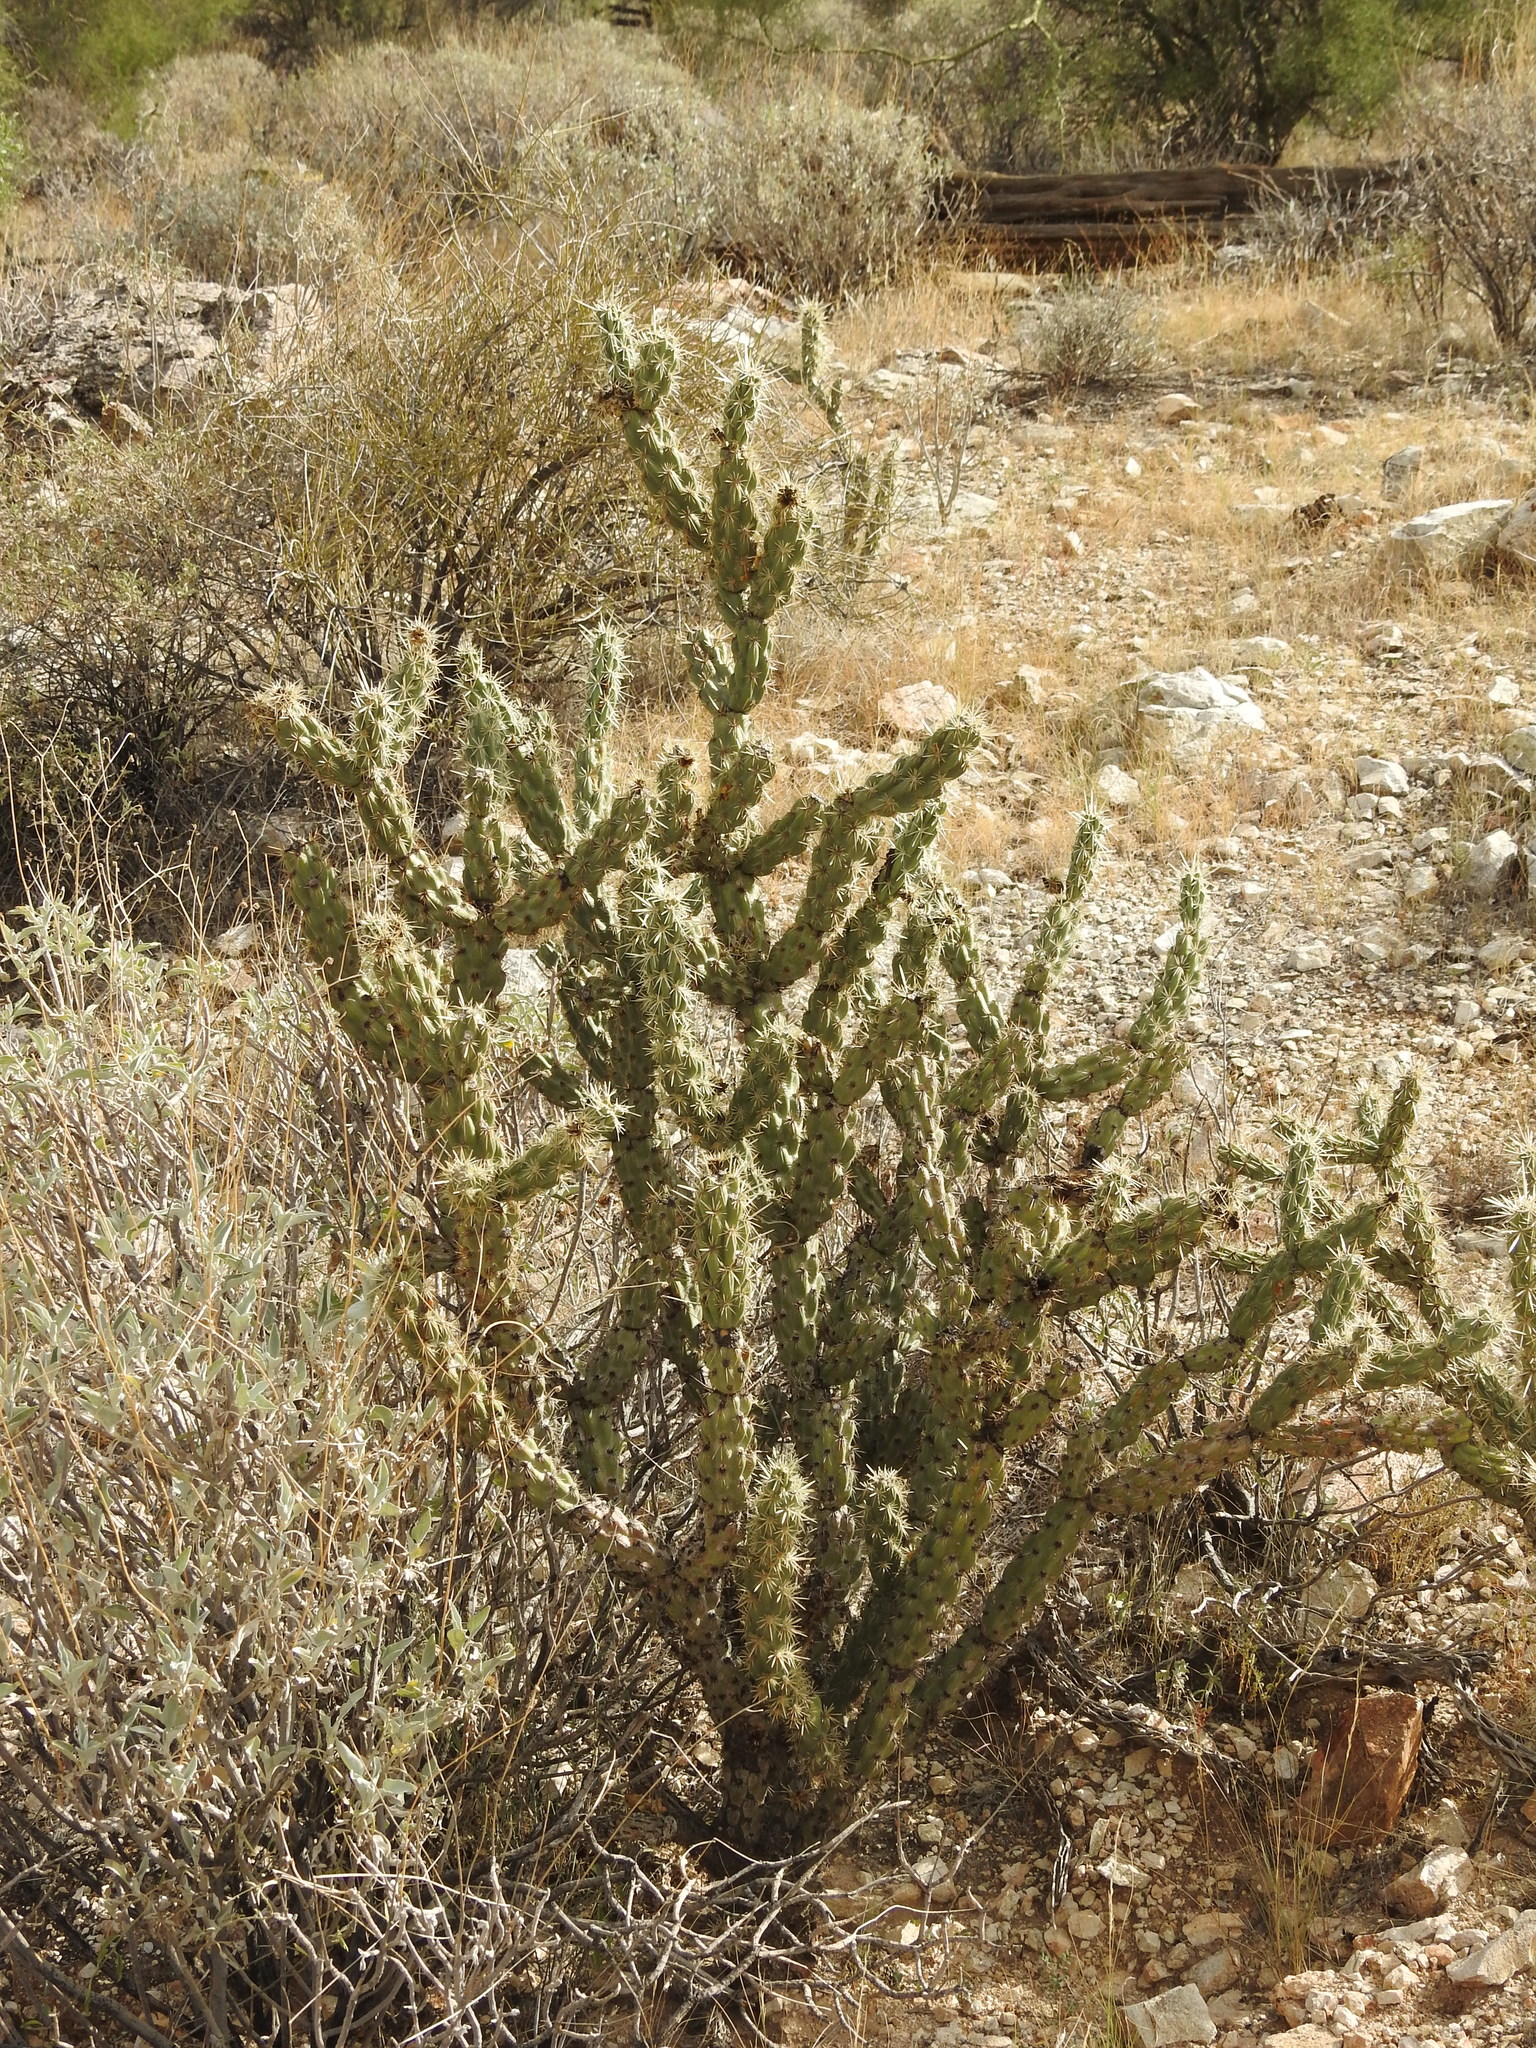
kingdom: Plantae
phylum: Tracheophyta
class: Magnoliopsida
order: Caryophyllales
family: Cactaceae
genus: Cylindropuntia
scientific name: Cylindropuntia acanthocarpa
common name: Buckhorn cholla
